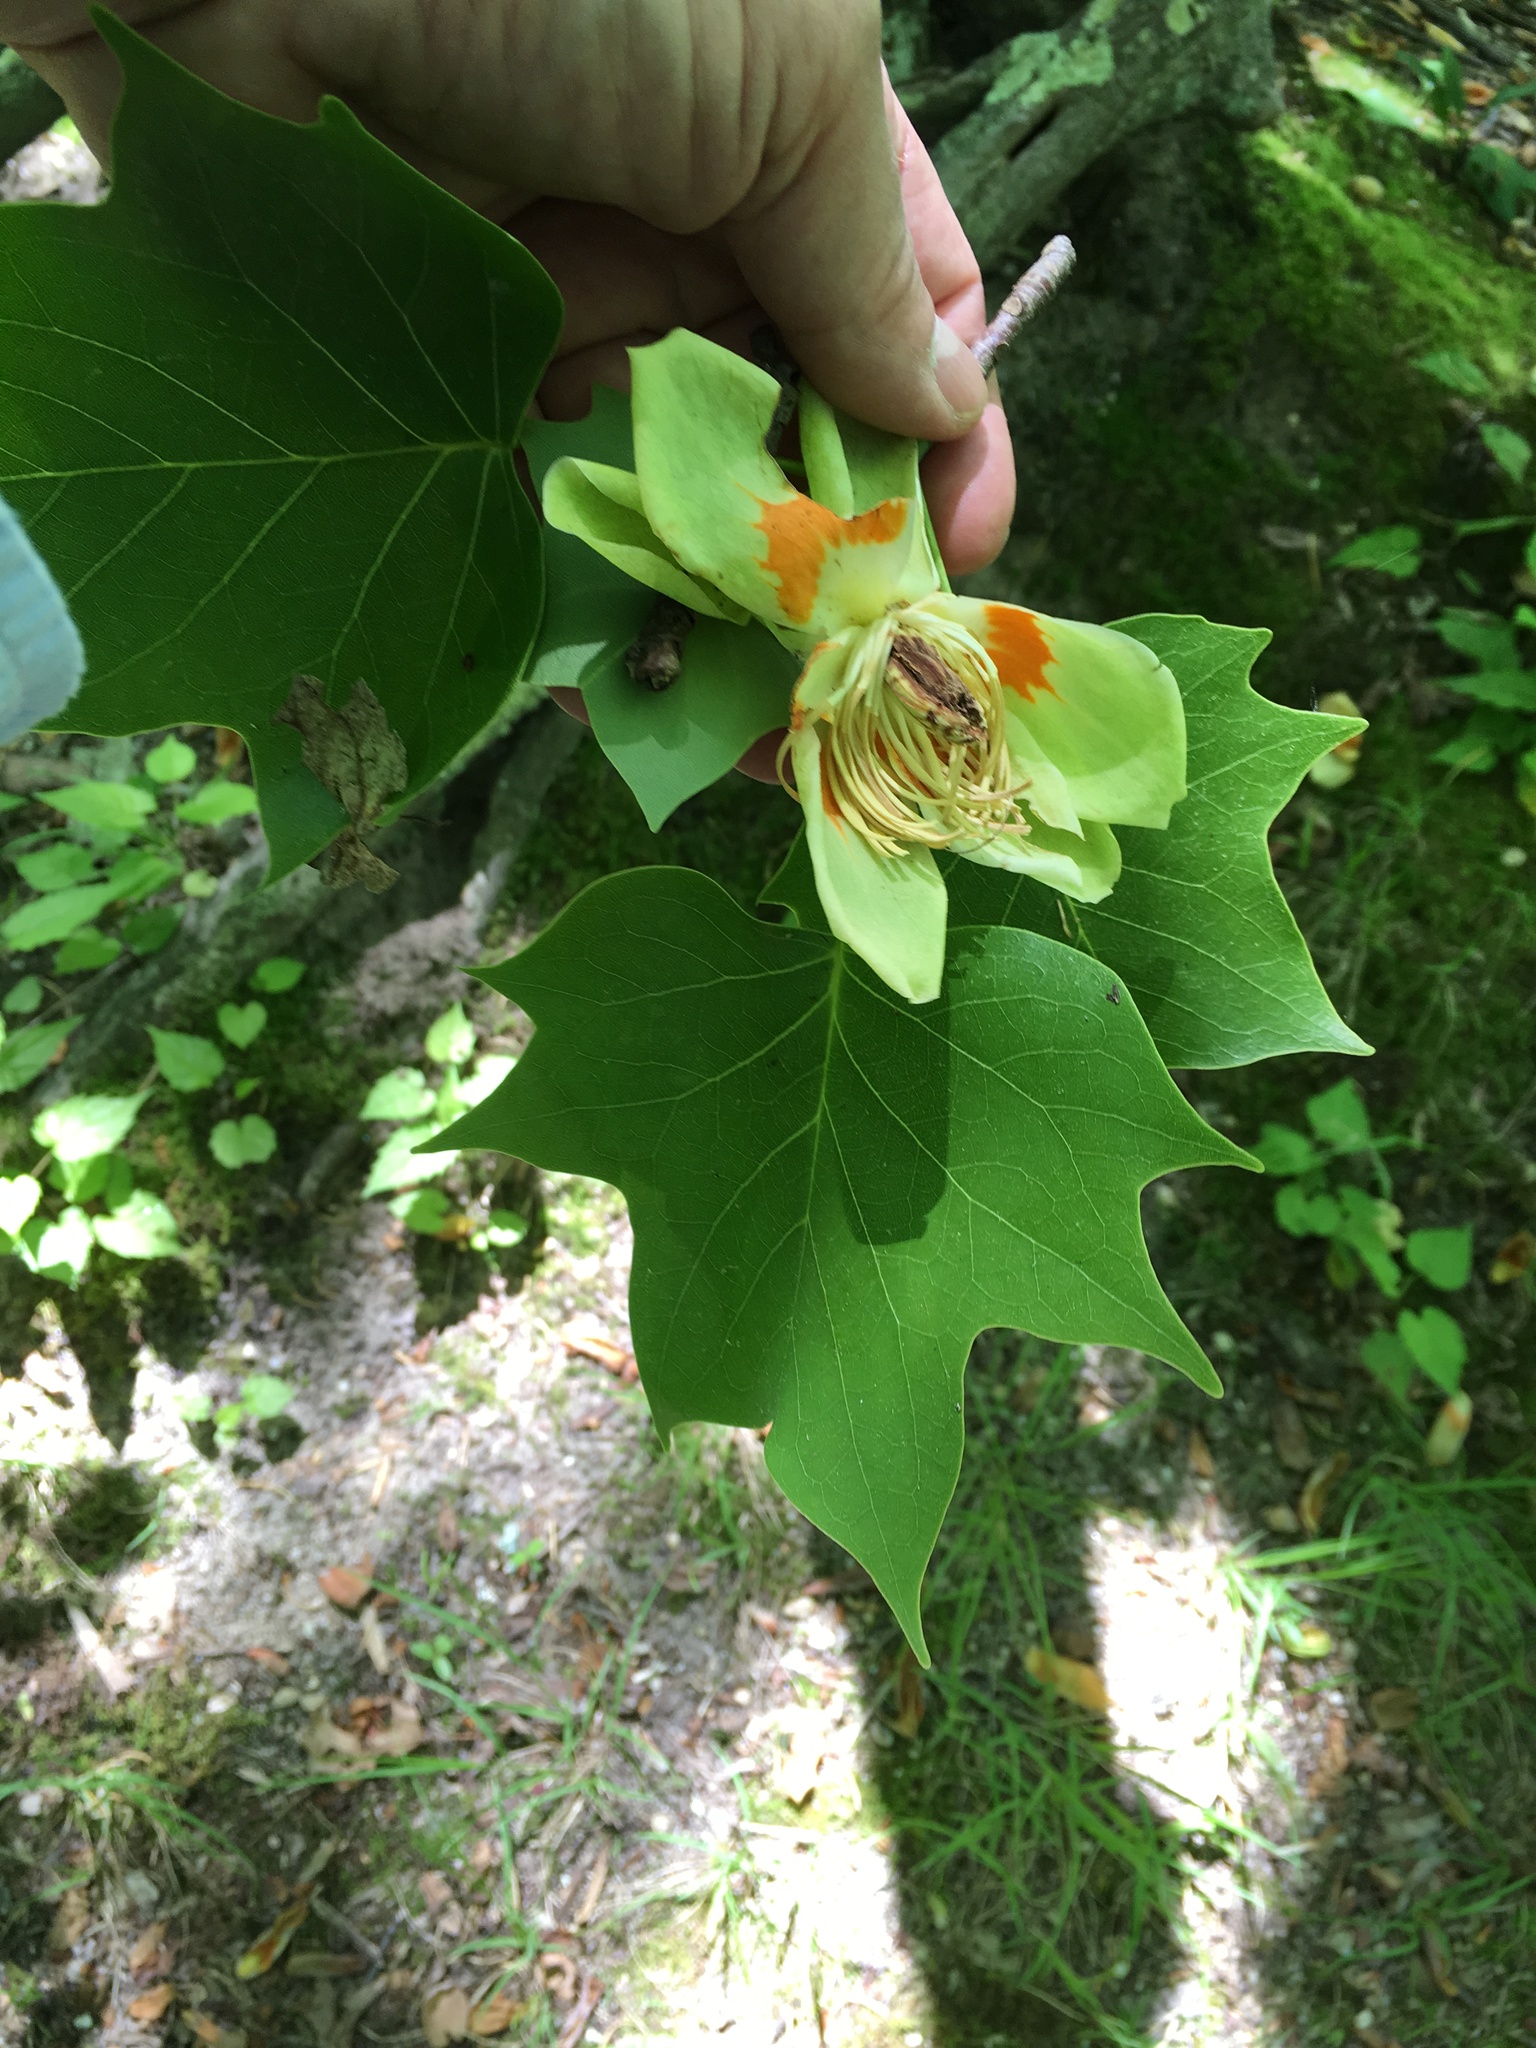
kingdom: Plantae
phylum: Tracheophyta
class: Magnoliopsida
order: Magnoliales
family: Magnoliaceae
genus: Liriodendron
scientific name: Liriodendron tulipifera
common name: Tulip tree
